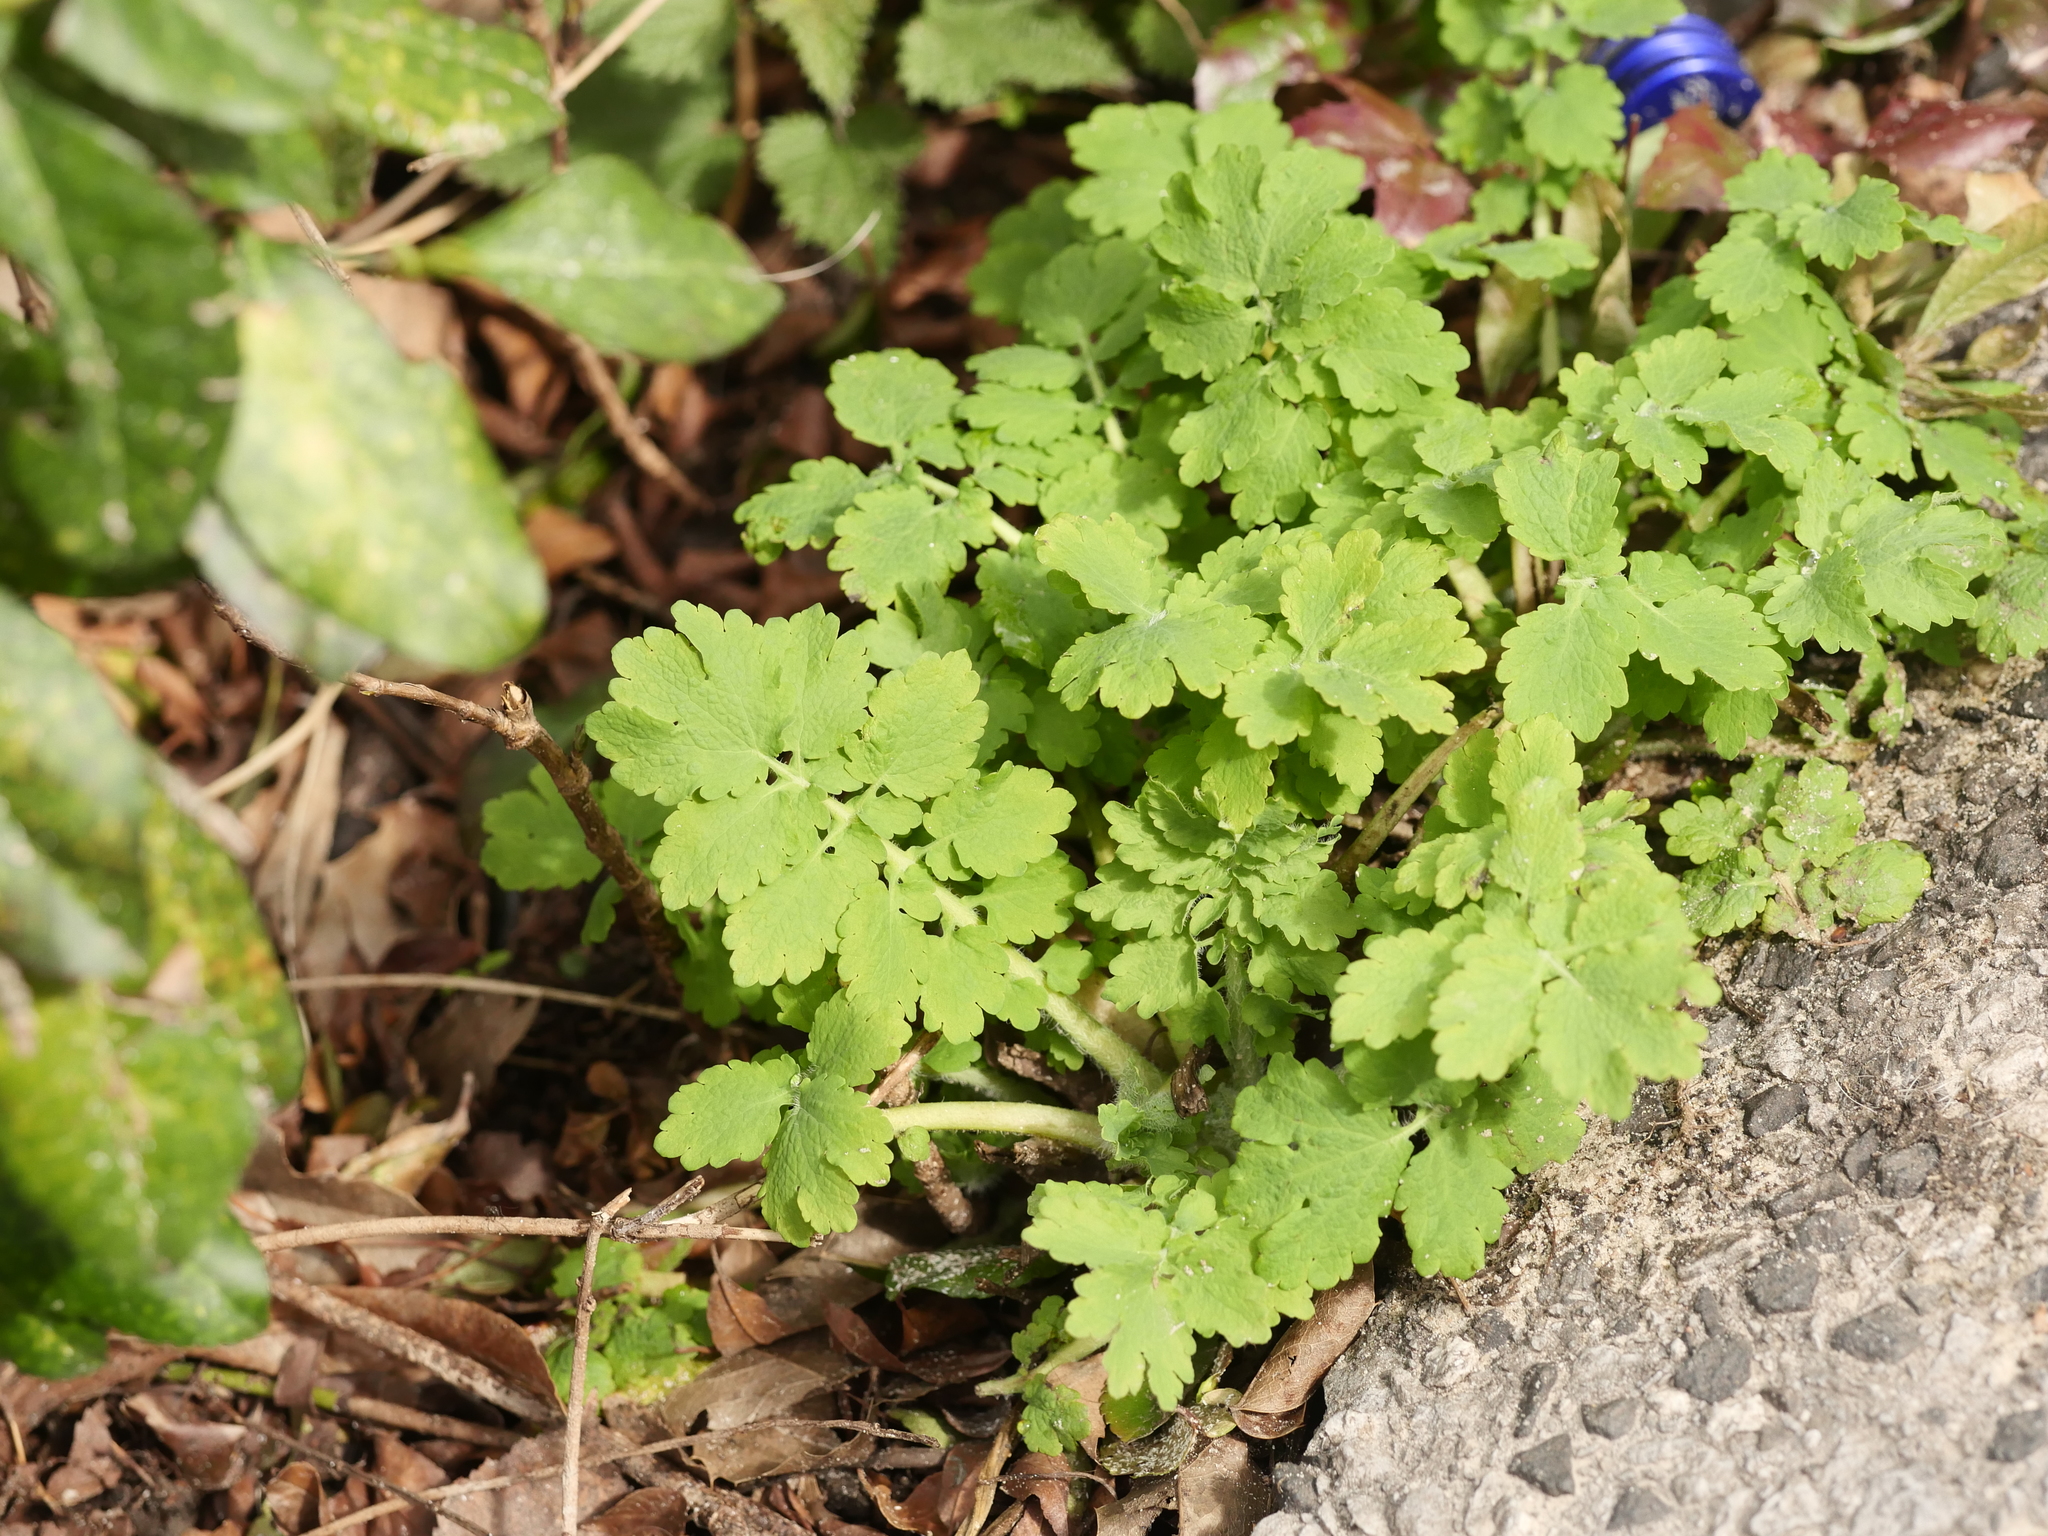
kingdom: Plantae
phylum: Tracheophyta
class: Magnoliopsida
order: Ranunculales
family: Papaveraceae
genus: Chelidonium
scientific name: Chelidonium majus
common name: Greater celandine
